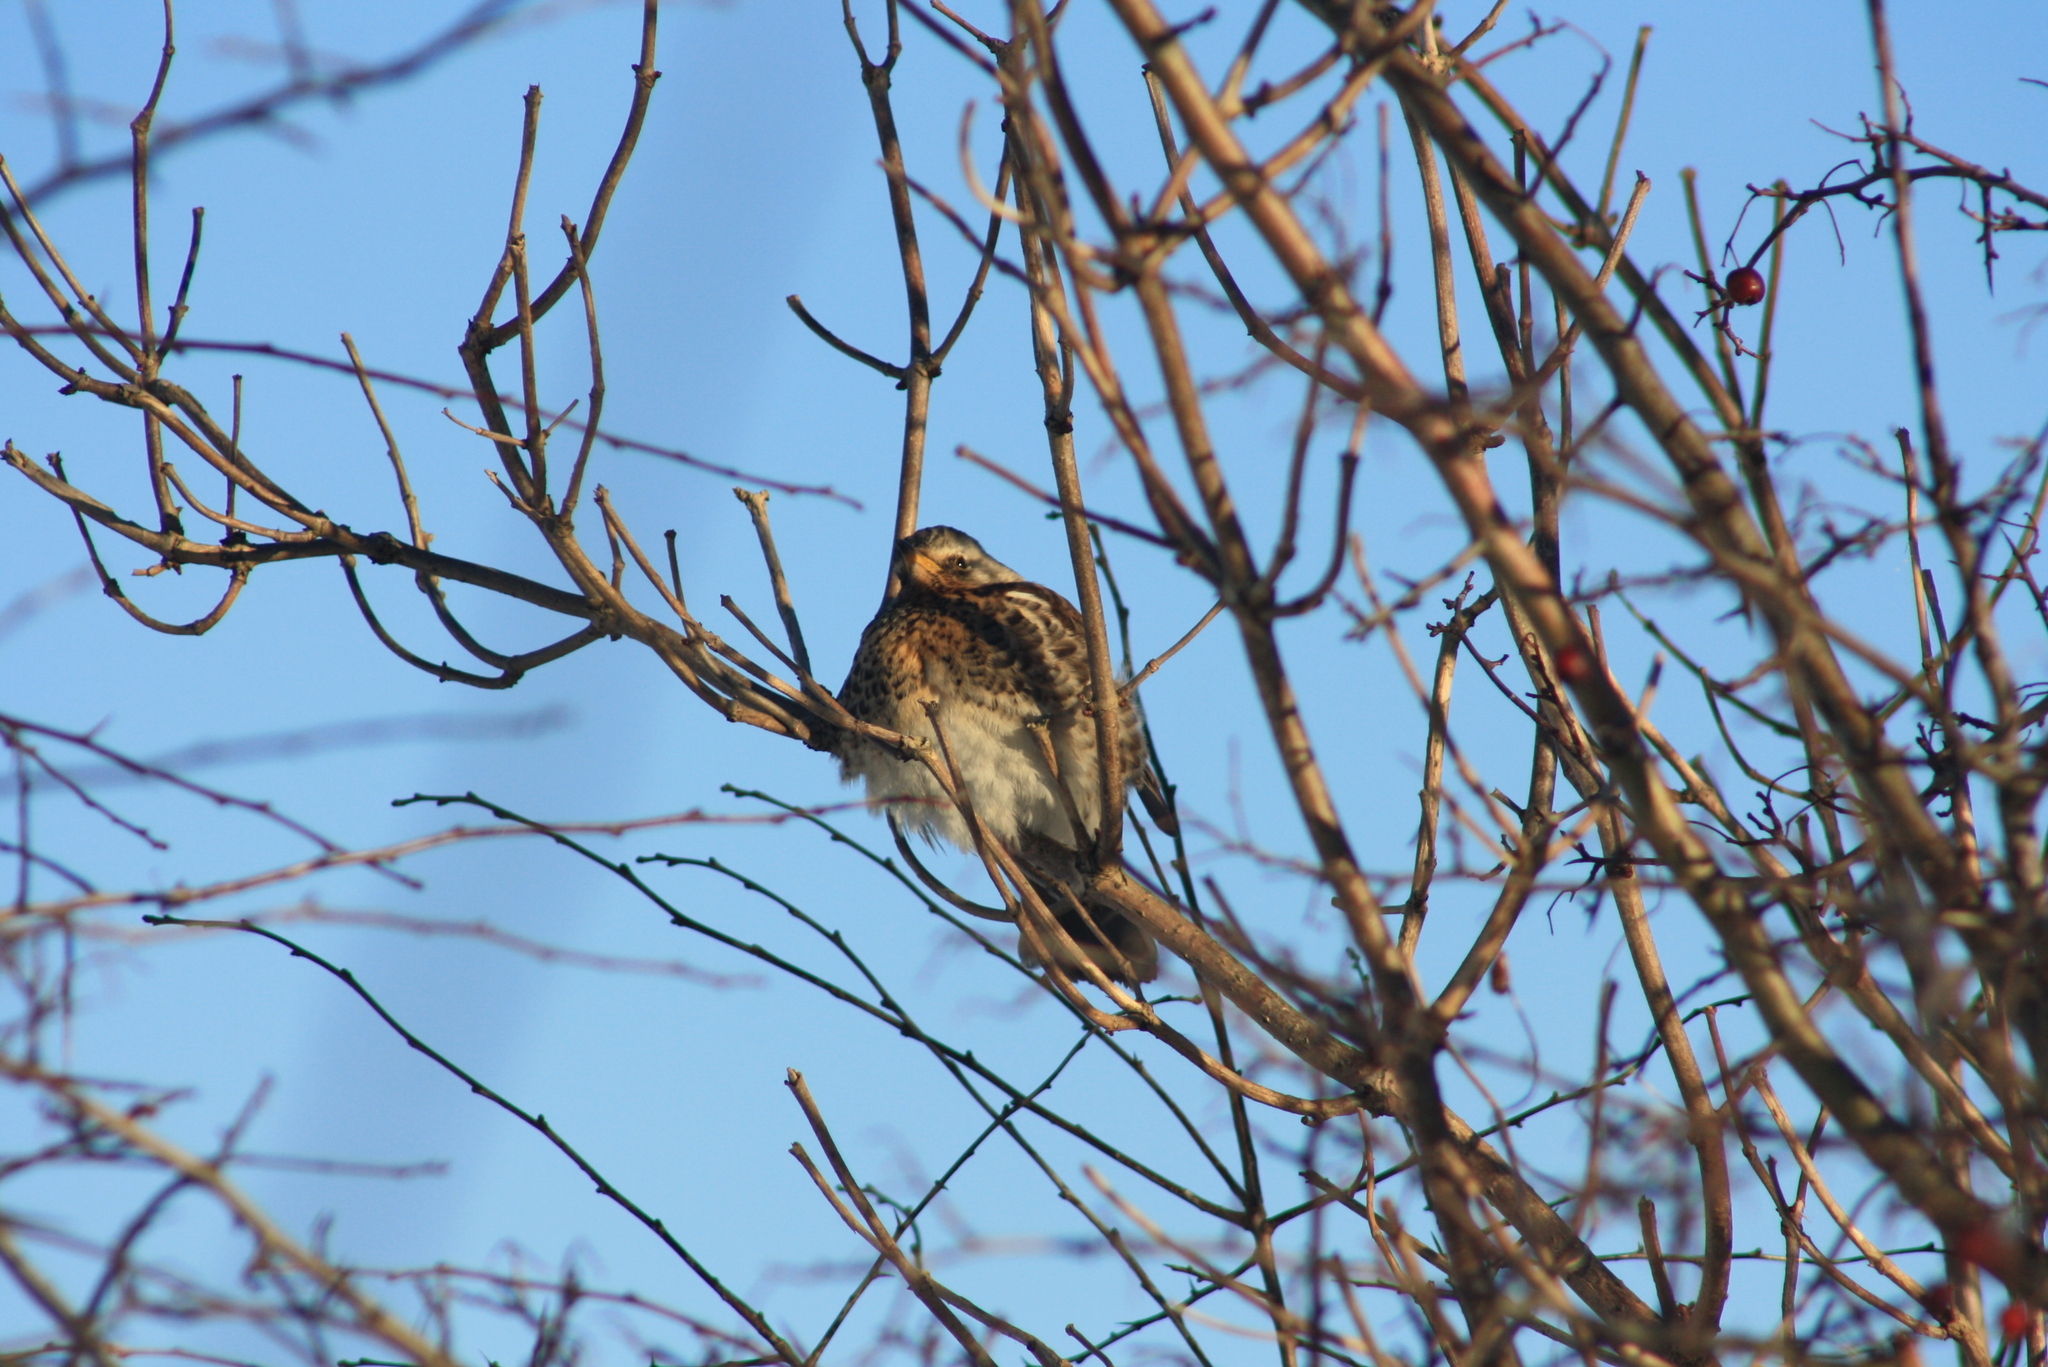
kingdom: Animalia
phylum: Chordata
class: Aves
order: Passeriformes
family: Turdidae
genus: Turdus
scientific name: Turdus pilaris
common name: Fieldfare
